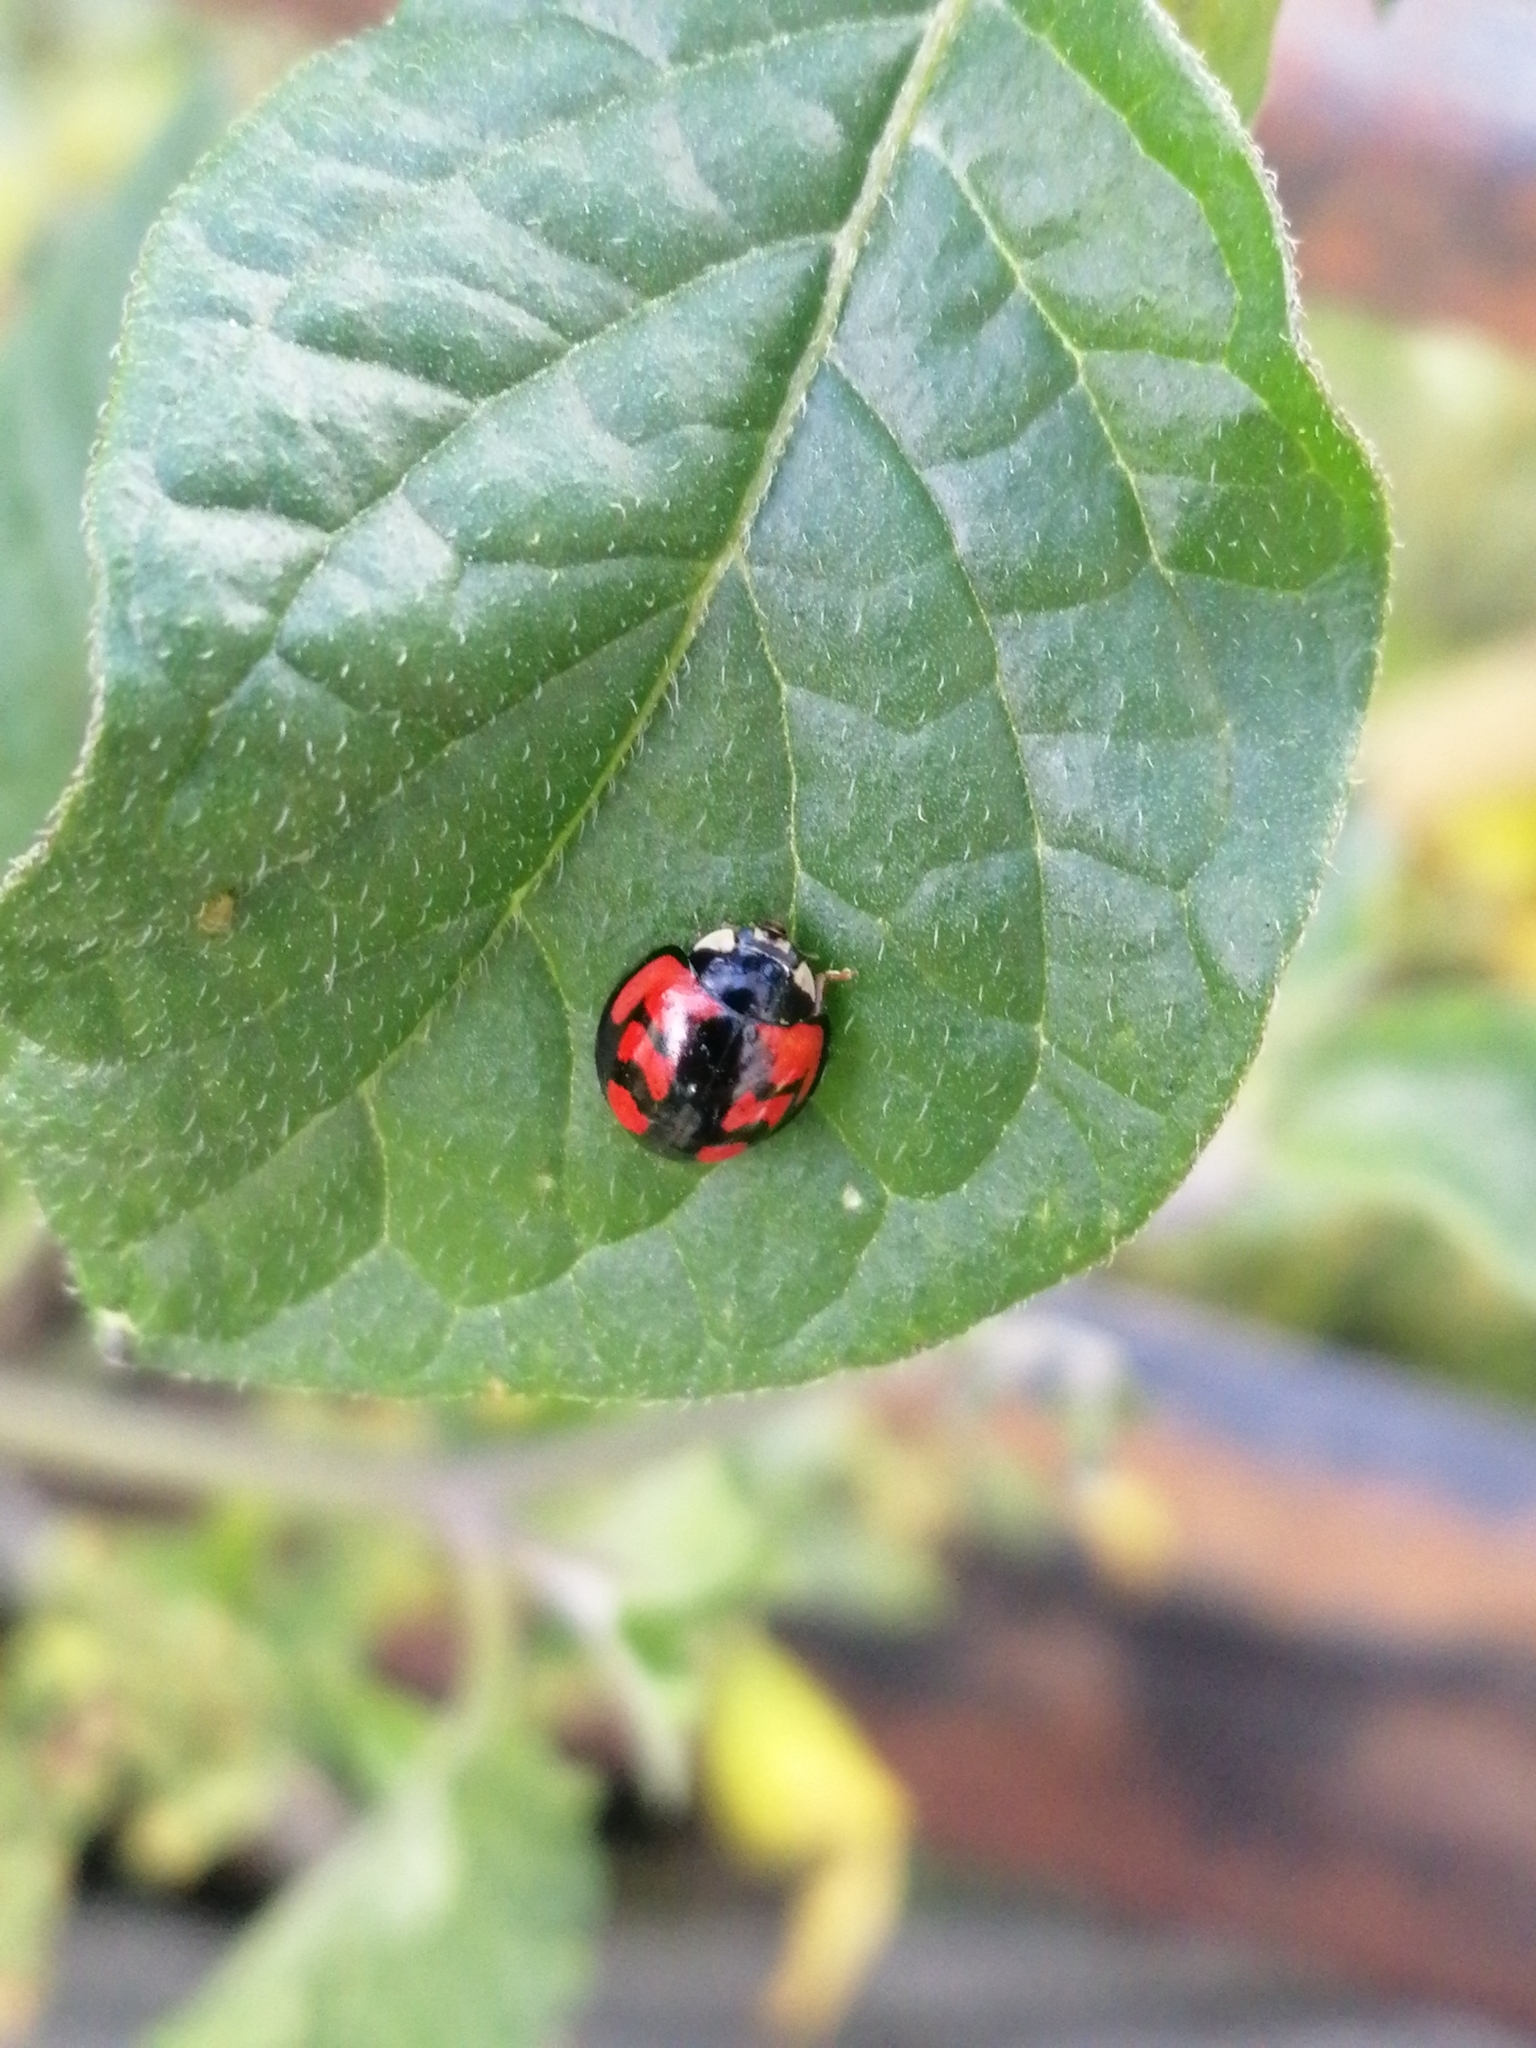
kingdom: Animalia
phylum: Arthropoda
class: Insecta
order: Coleoptera
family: Coccinellidae
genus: Cheilomenes
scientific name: Cheilomenes sexmaculata
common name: Ladybird beetle
